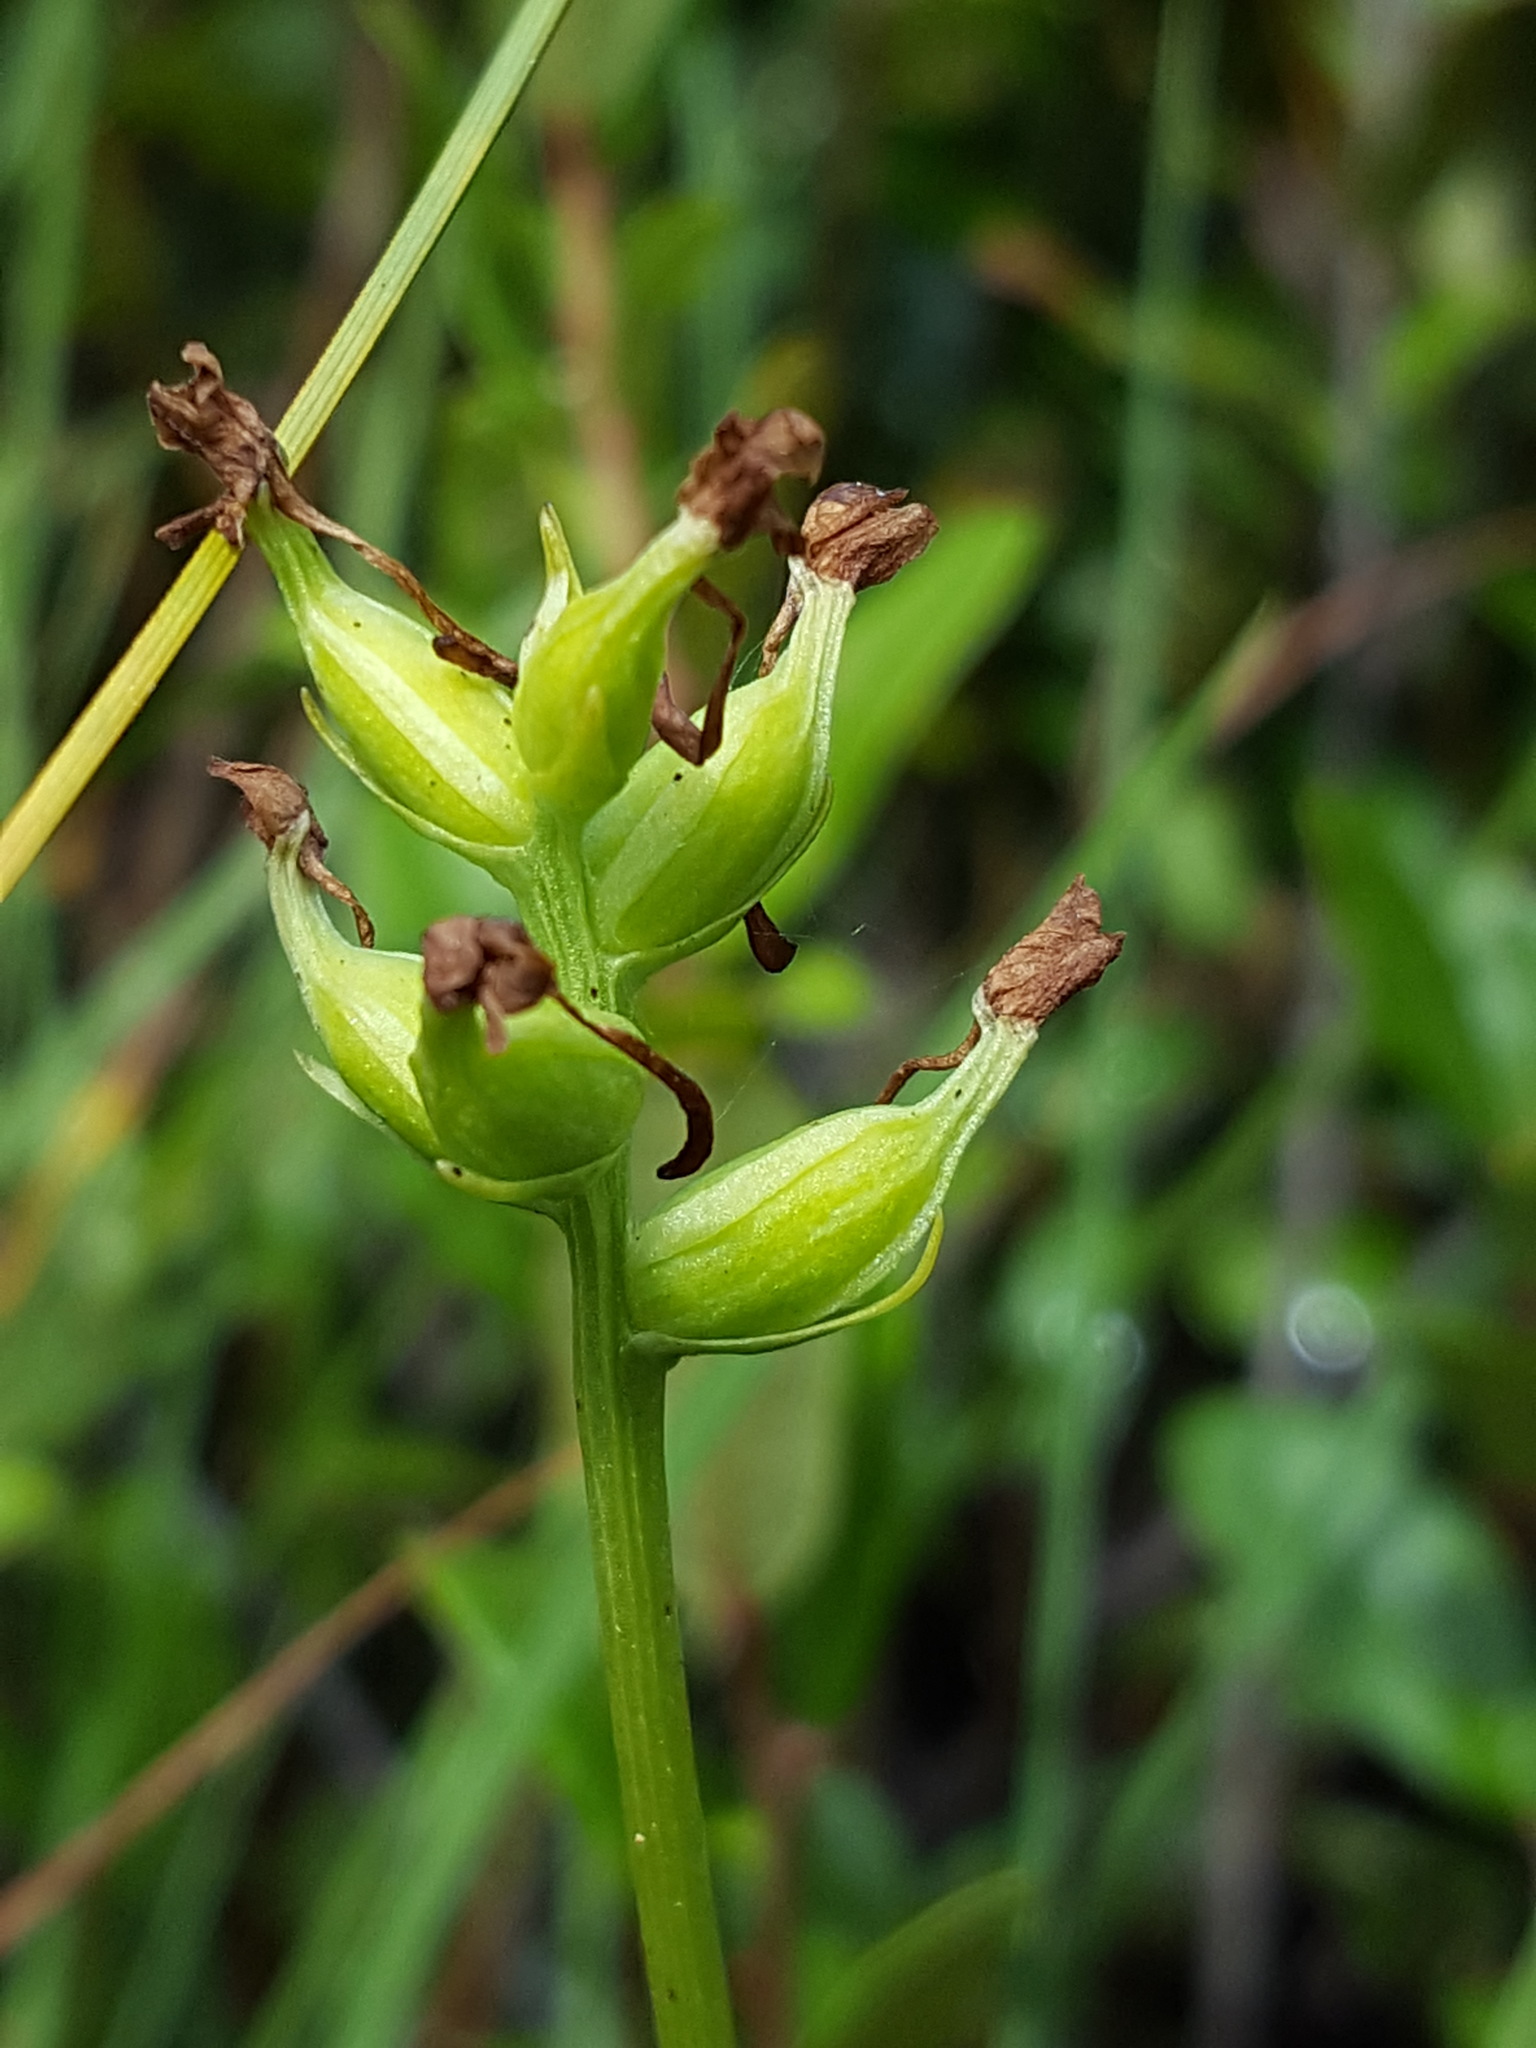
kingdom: Plantae
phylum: Tracheophyta
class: Liliopsida
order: Asparagales
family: Orchidaceae
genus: Platanthera
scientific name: Platanthera clavellata
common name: Club-spur orchid
